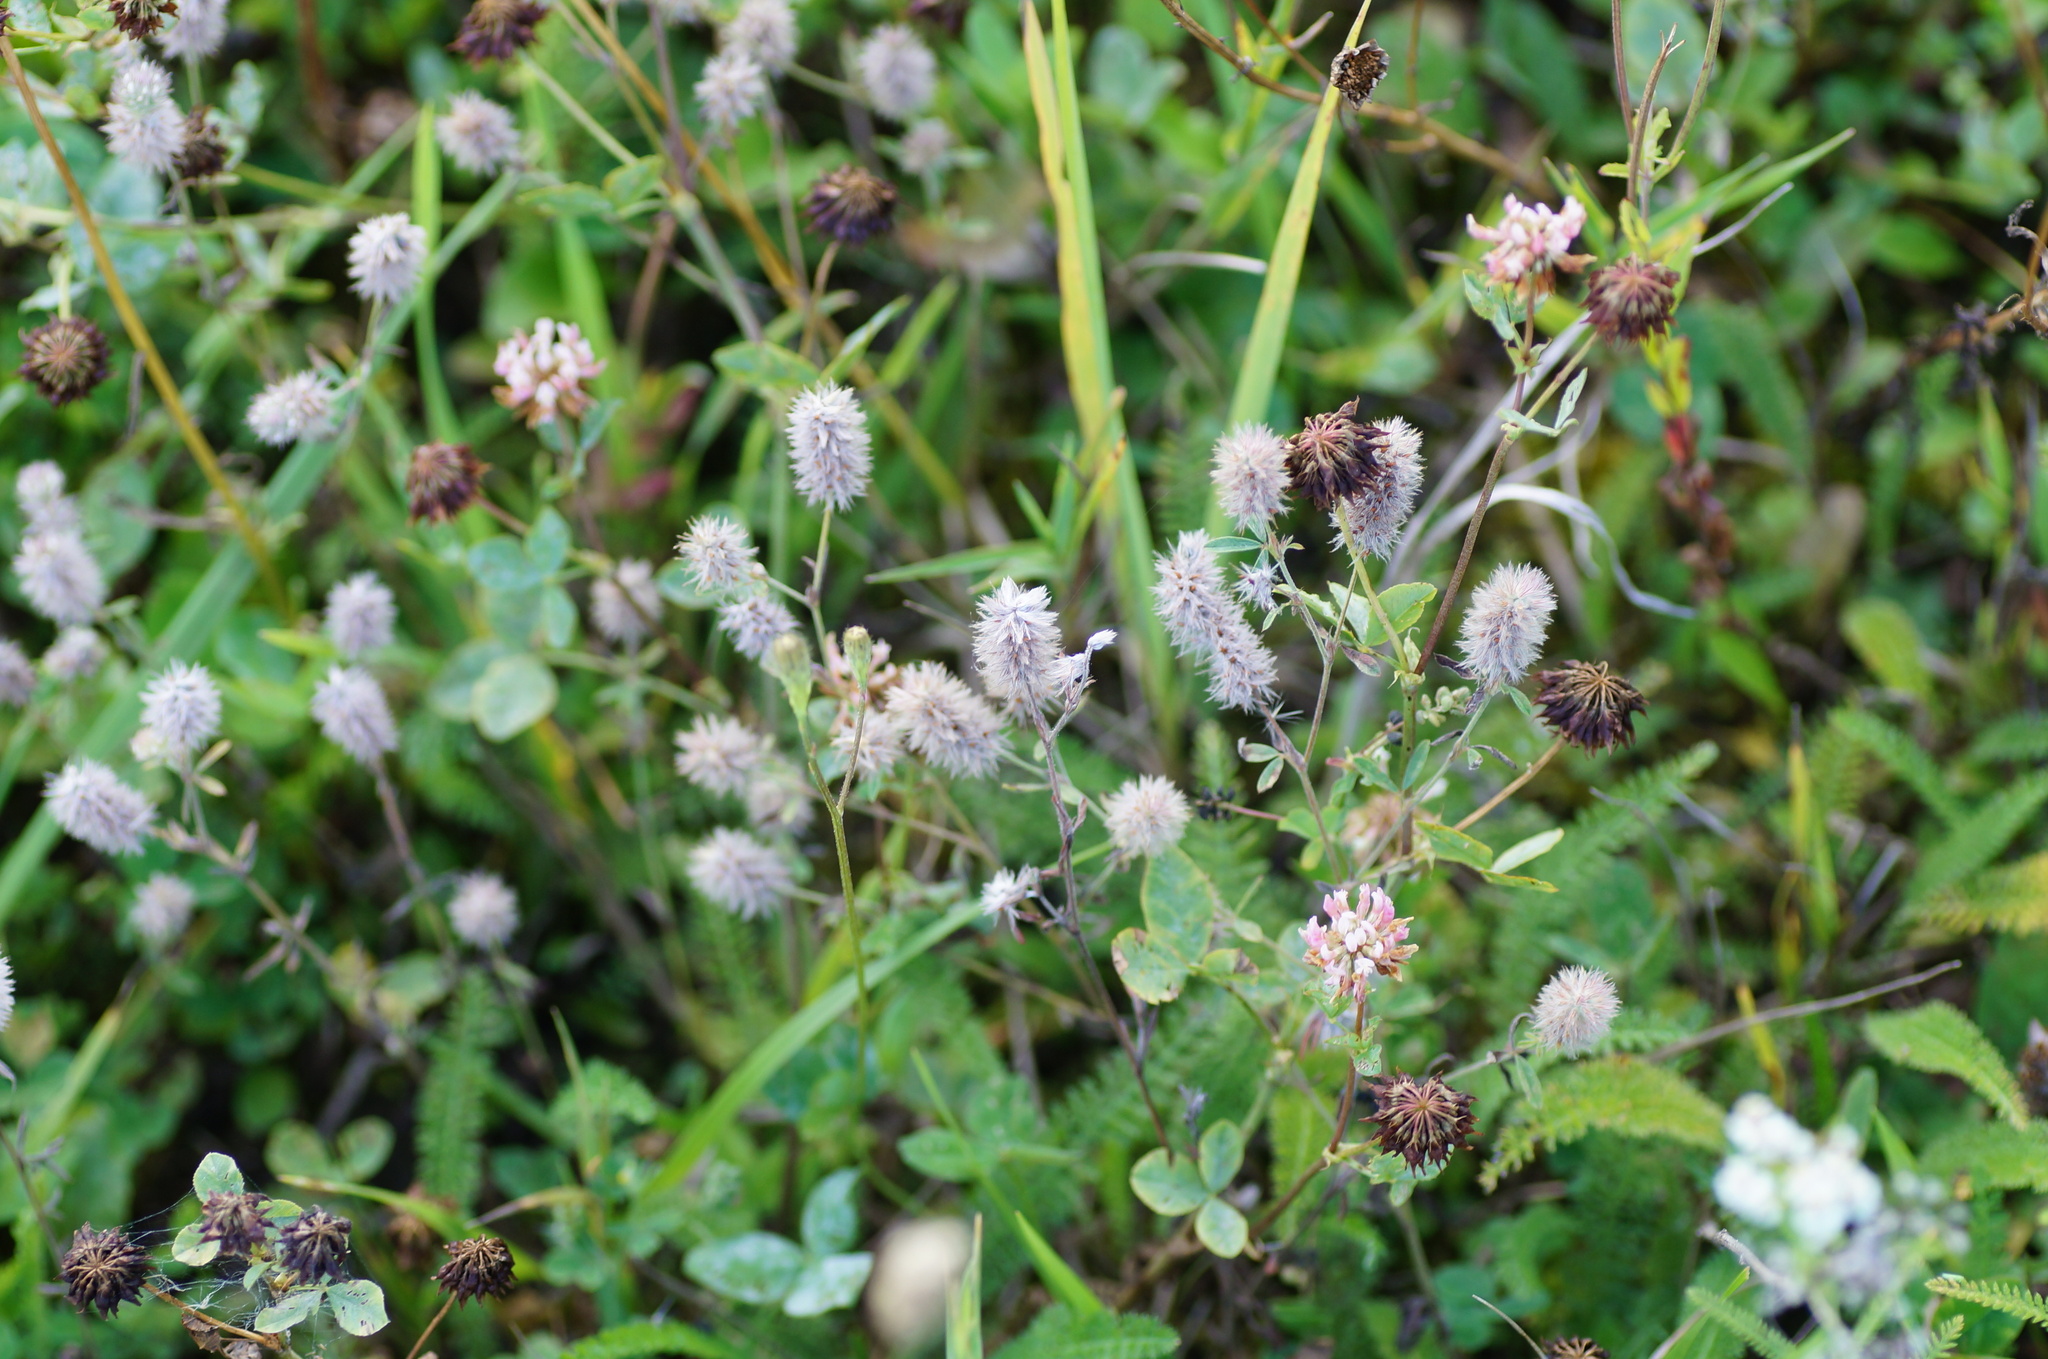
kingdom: Plantae
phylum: Tracheophyta
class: Magnoliopsida
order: Fabales
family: Fabaceae
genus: Trifolium
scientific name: Trifolium arvense
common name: Hare's-foot clover
